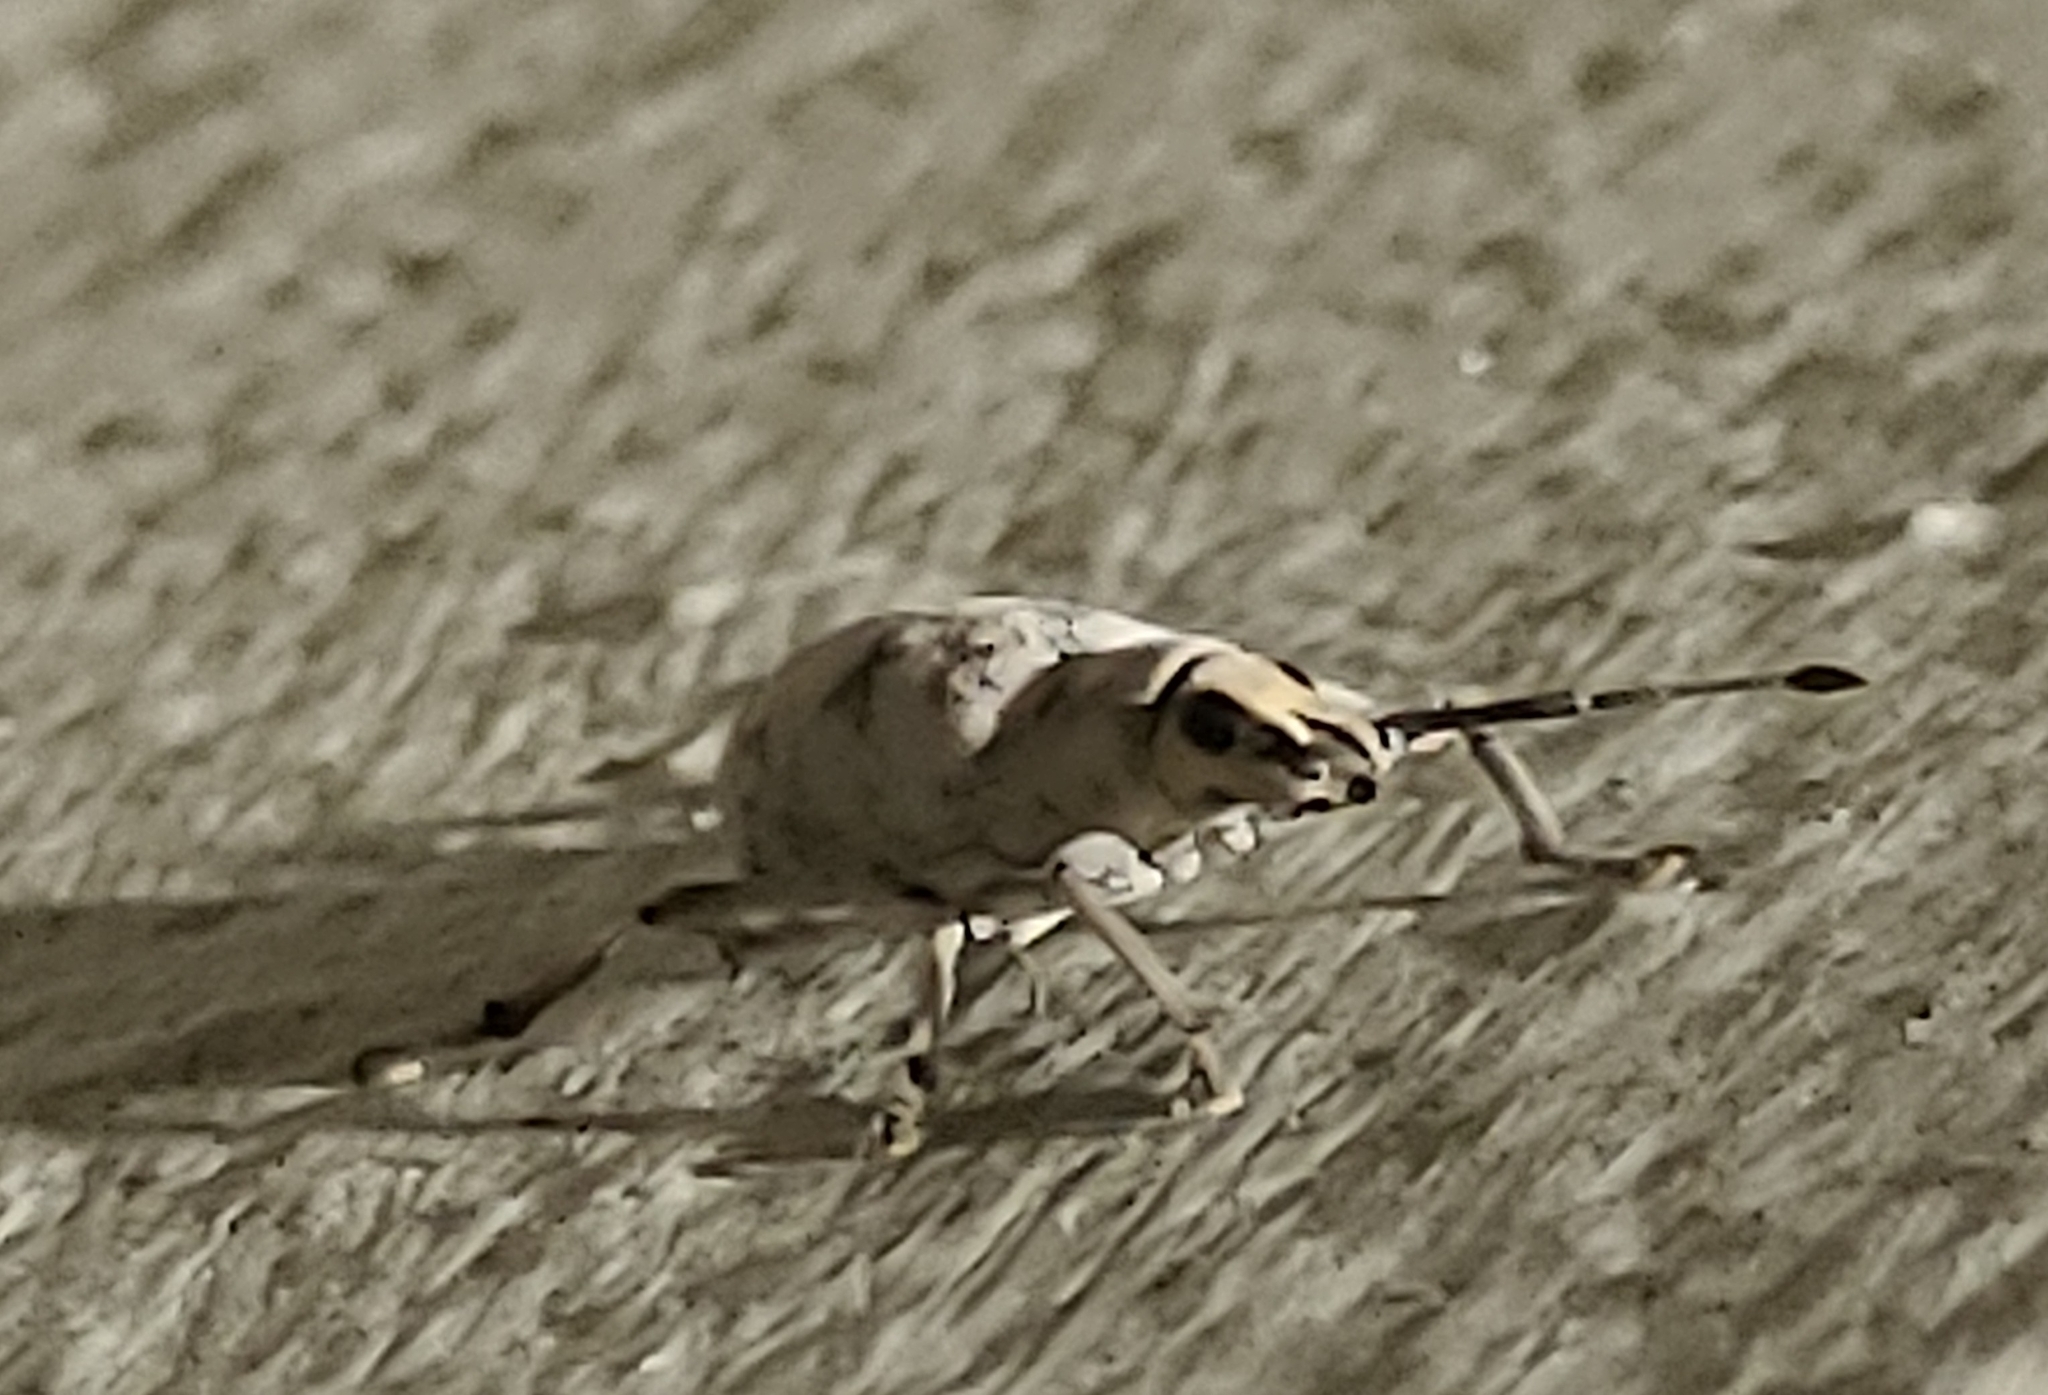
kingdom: Animalia
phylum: Arthropoda
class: Insecta
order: Coleoptera
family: Curculionidae
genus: Myllocerus
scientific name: Myllocerus undecimpustulatus
